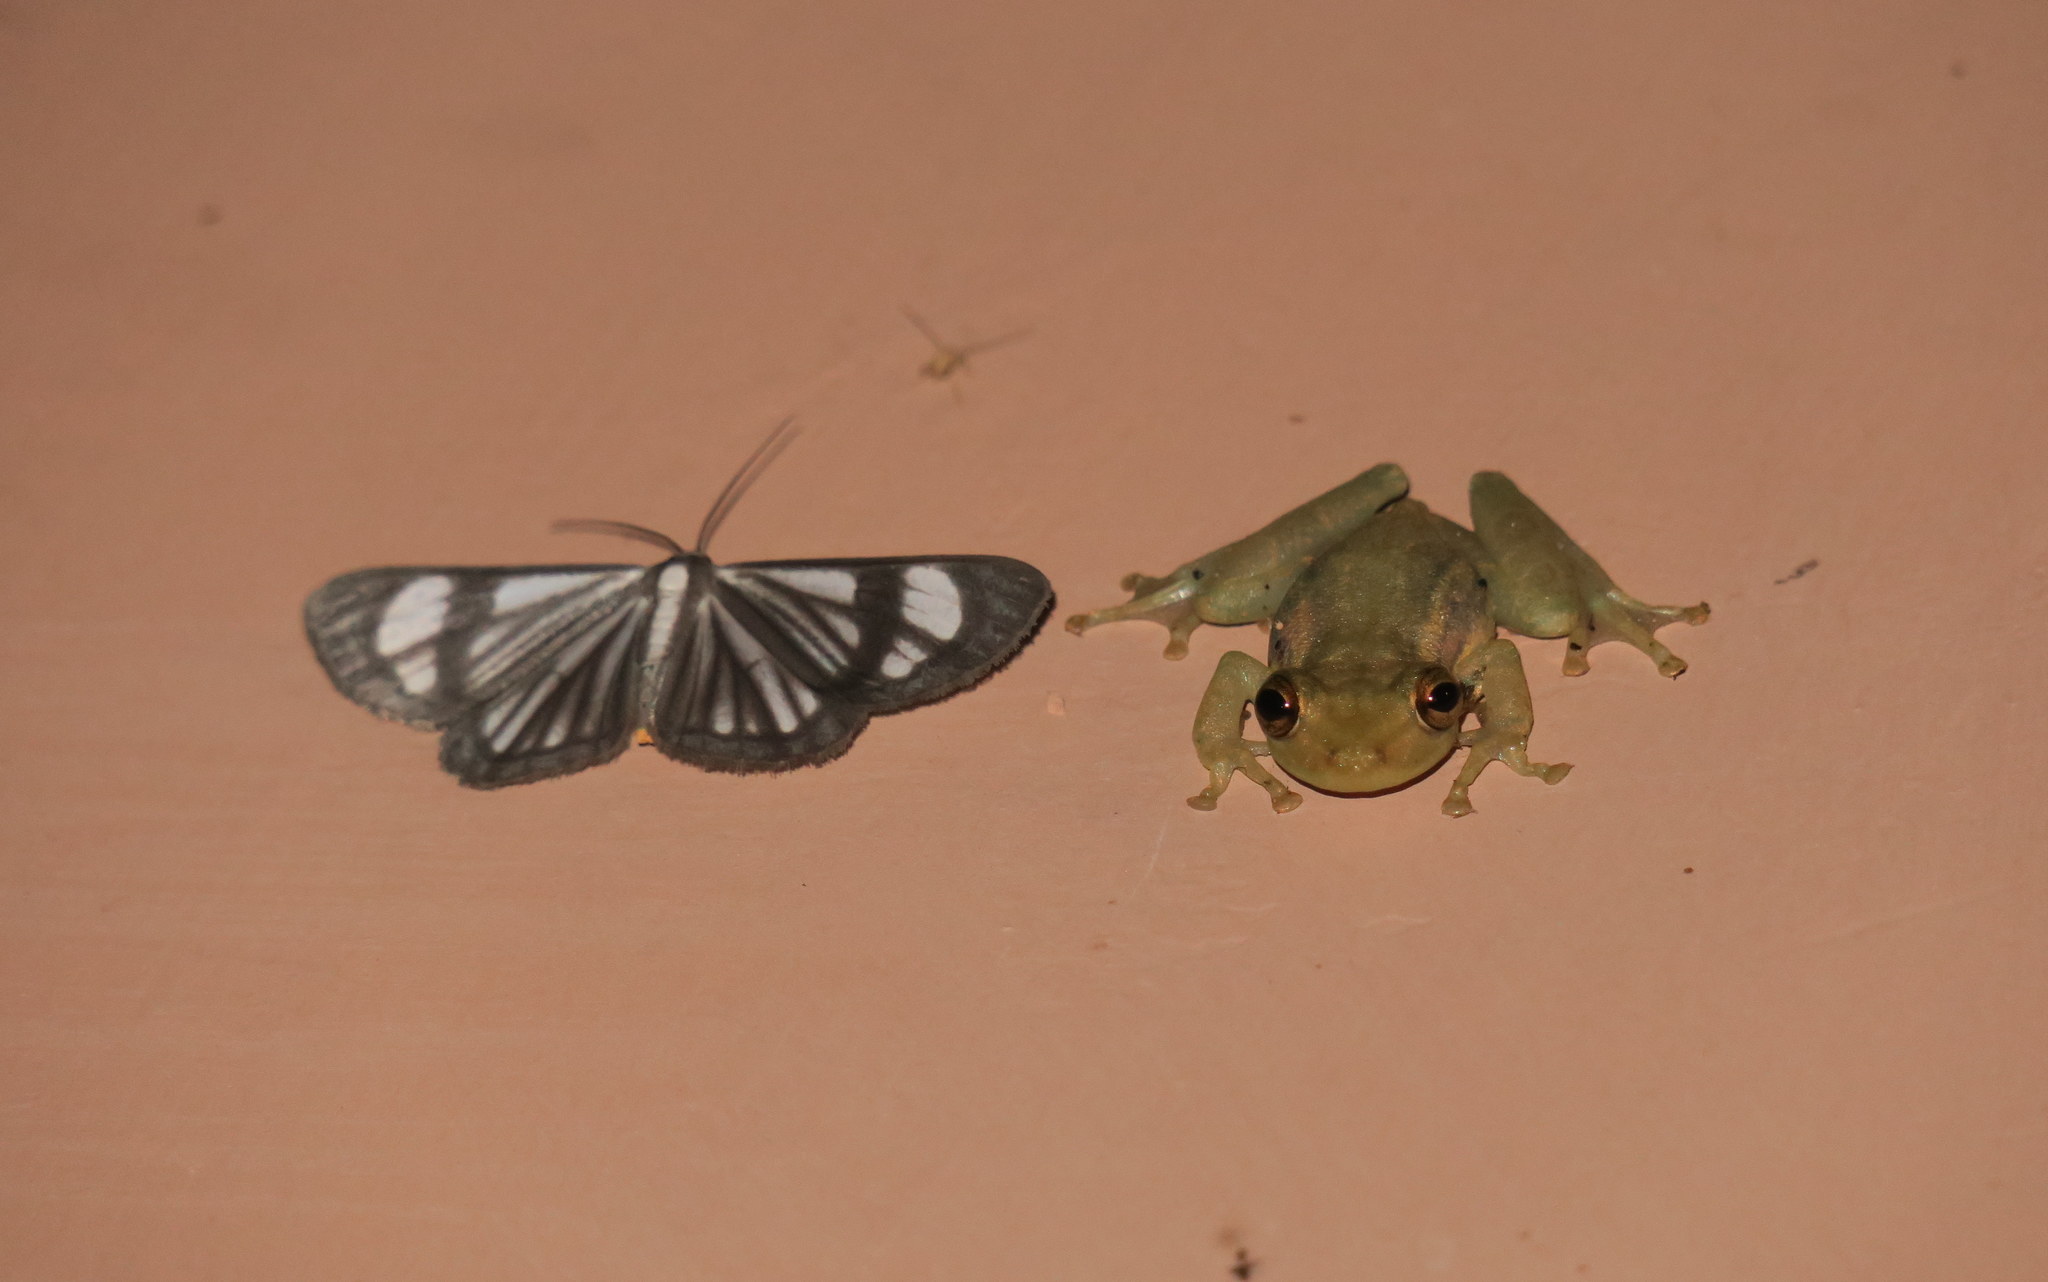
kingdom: Animalia
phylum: Chordata
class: Amphibia
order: Anura
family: Hylidae
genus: Scinax
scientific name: Scinax tsachila
